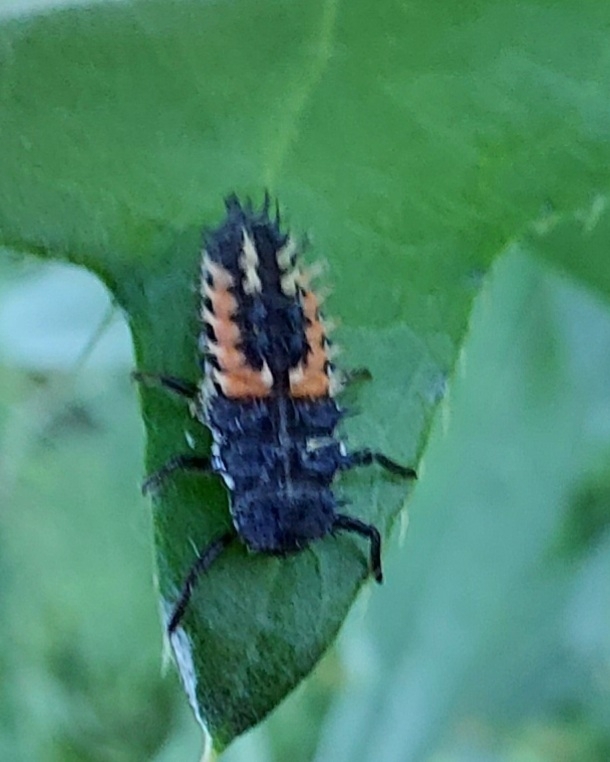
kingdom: Animalia
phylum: Arthropoda
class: Insecta
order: Coleoptera
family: Coccinellidae
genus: Harmonia
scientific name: Harmonia axyridis
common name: Harlequin ladybird
